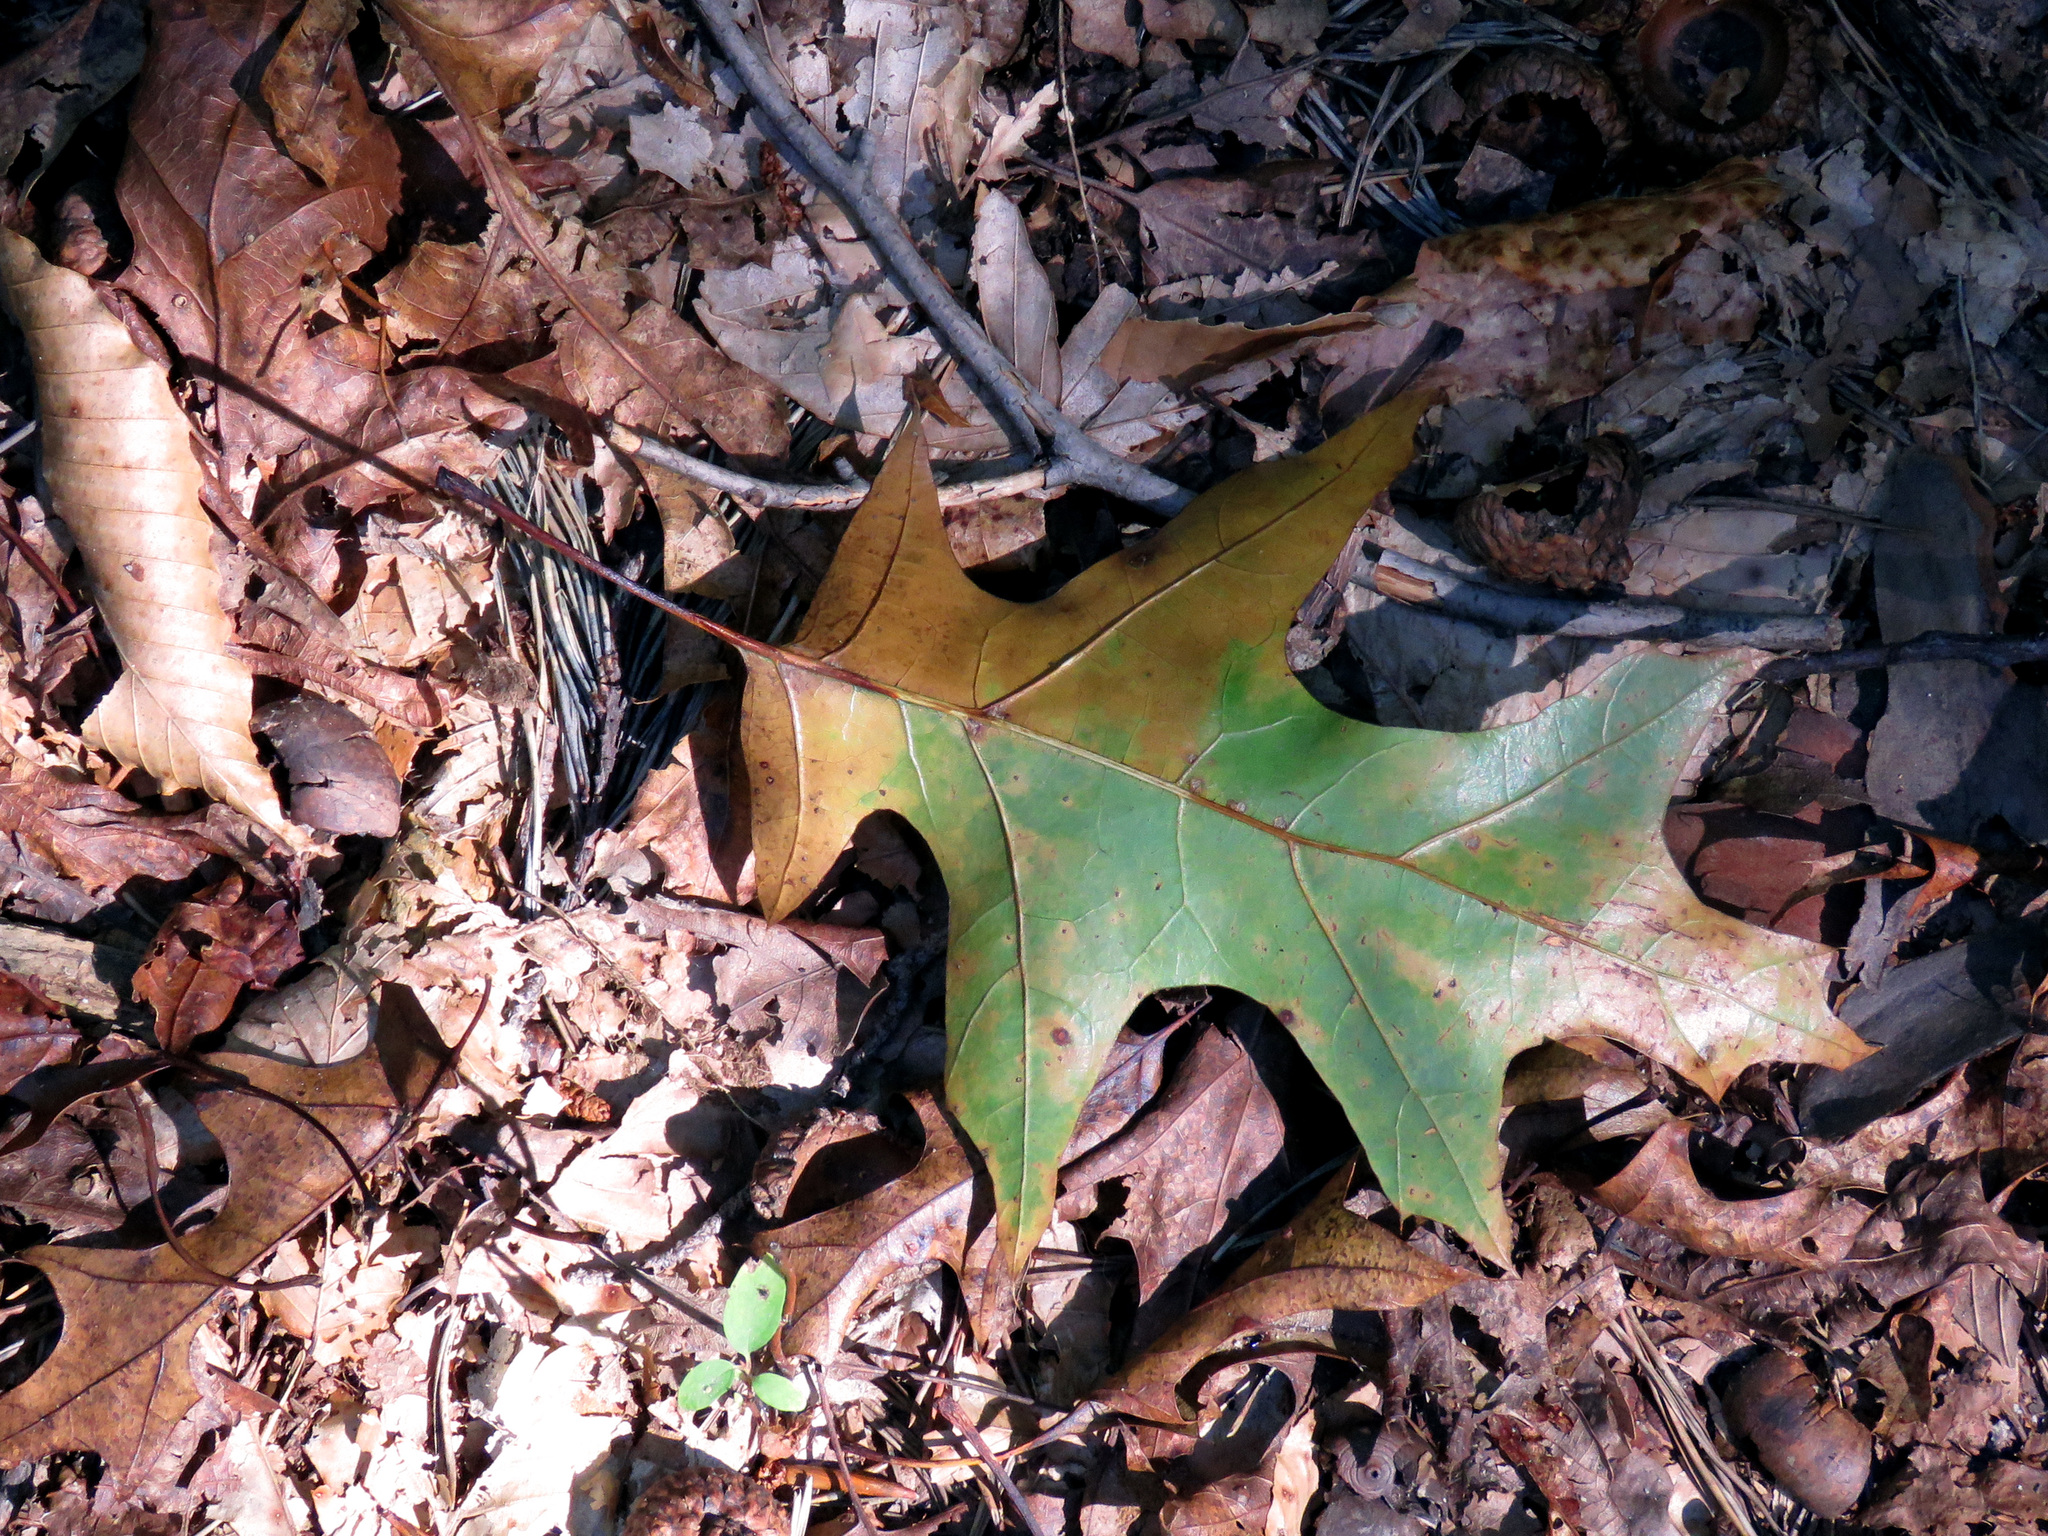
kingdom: Plantae
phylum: Tracheophyta
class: Magnoliopsida
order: Fagales
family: Fagaceae
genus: Quercus
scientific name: Quercus rubra
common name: Red oak
